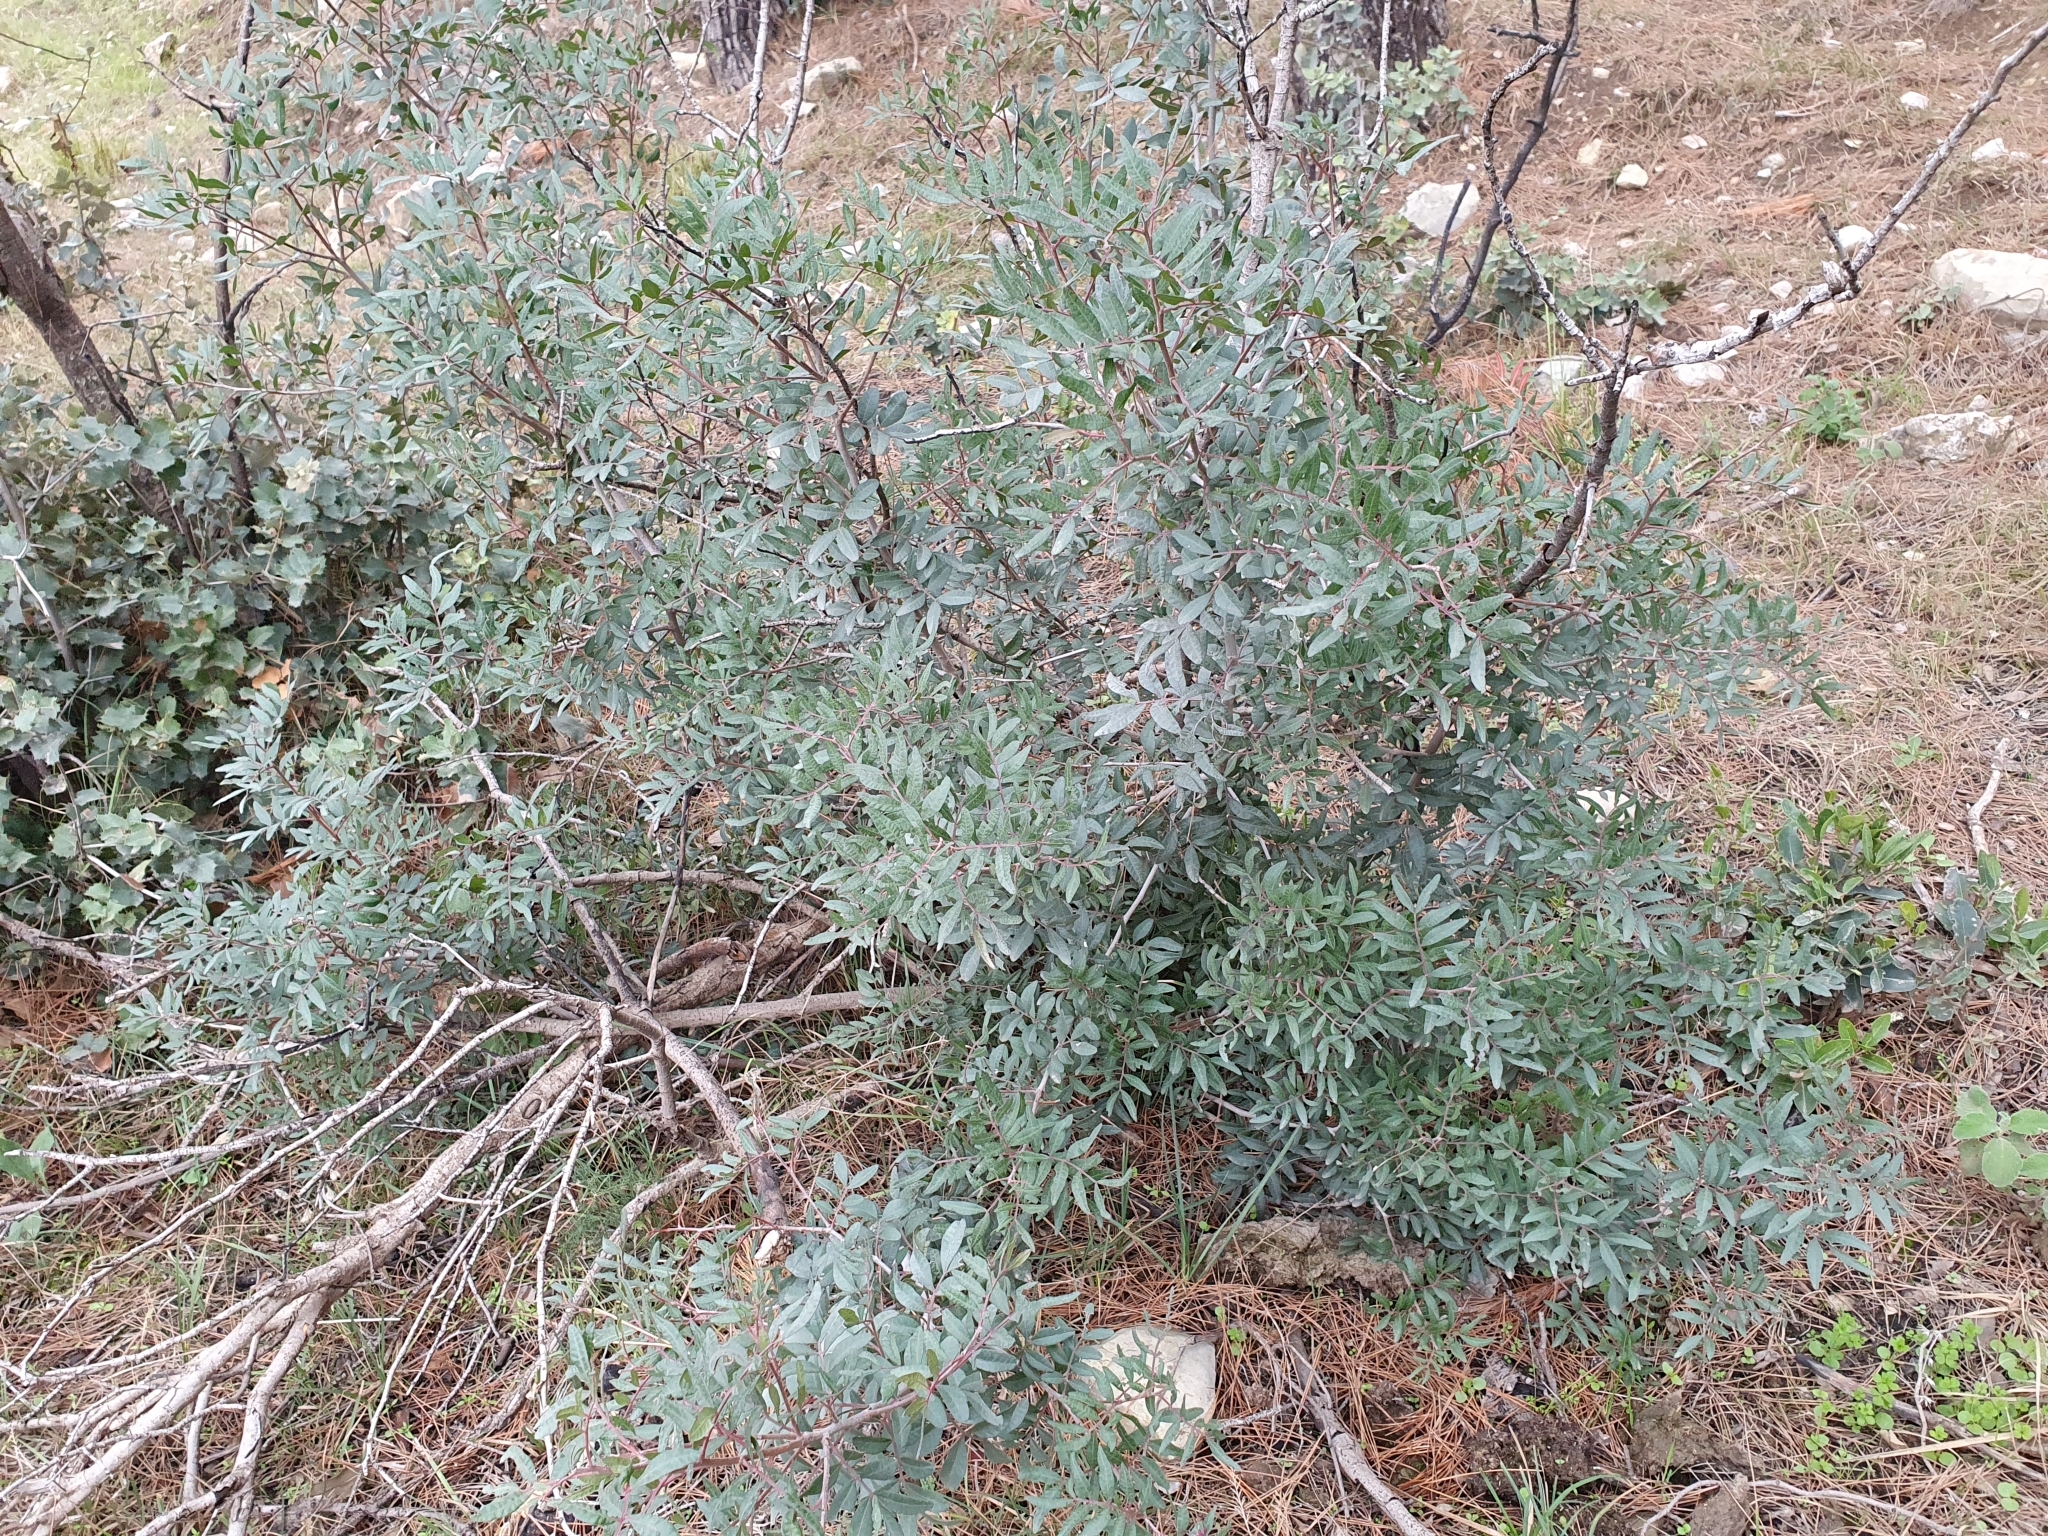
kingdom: Plantae
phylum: Tracheophyta
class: Magnoliopsida
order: Sapindales
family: Anacardiaceae
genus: Pistacia
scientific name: Pistacia lentiscus
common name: Lentisk
